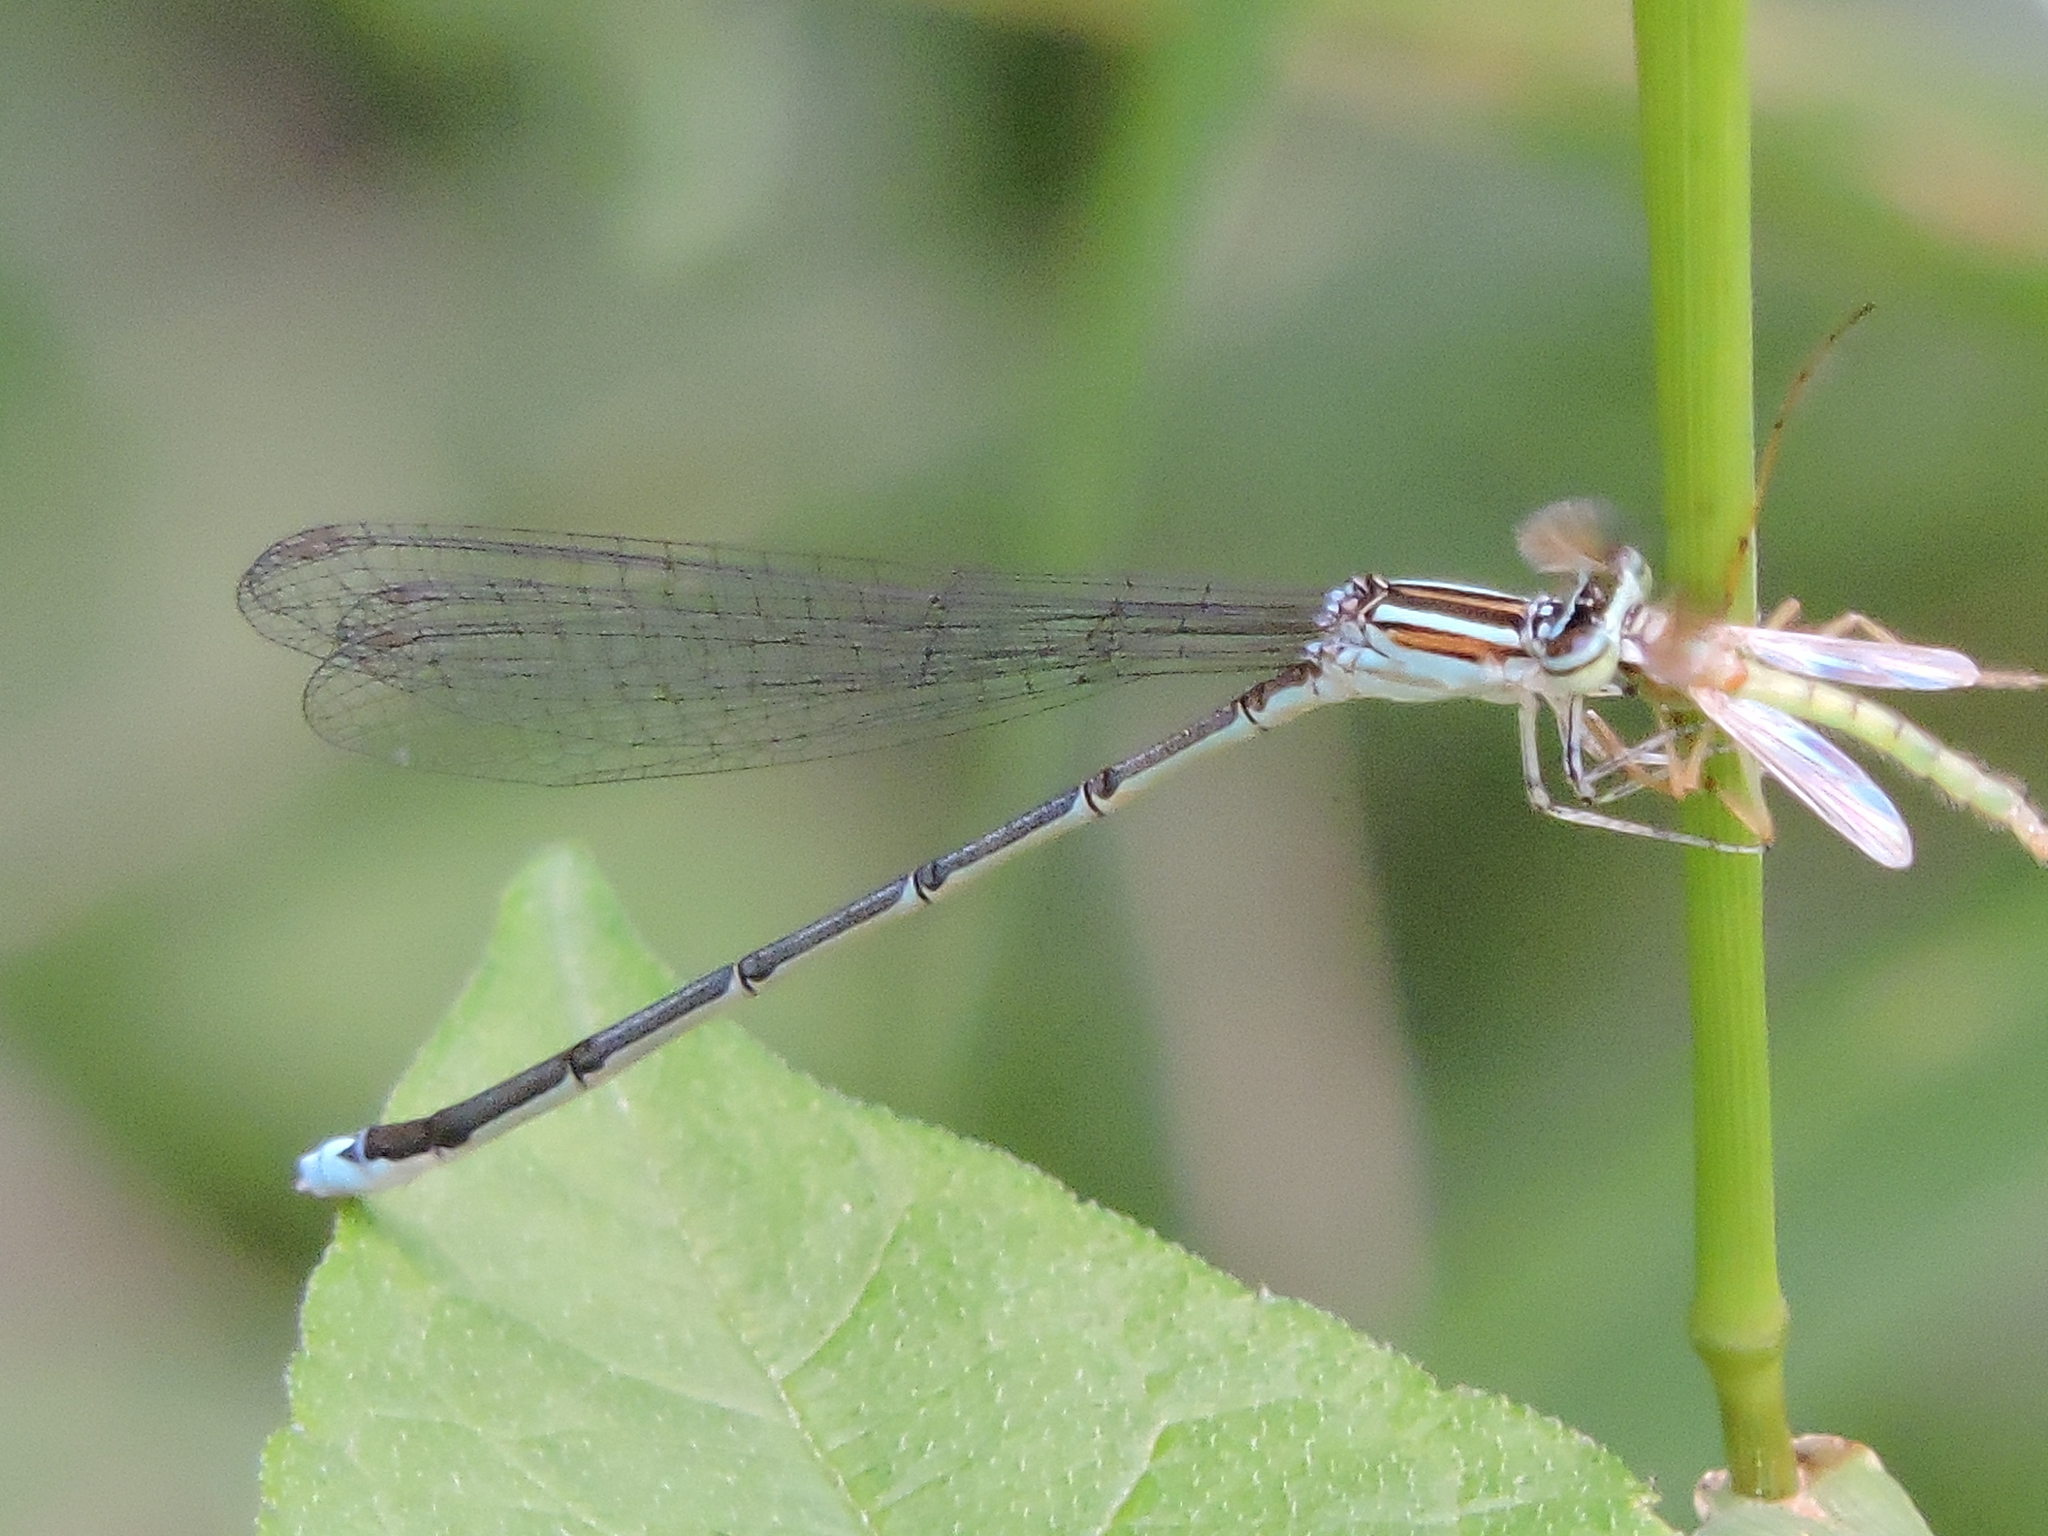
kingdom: Animalia
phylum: Arthropoda
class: Insecta
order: Odonata
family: Coenagrionidae
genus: Enallagma
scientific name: Enallagma exsulans
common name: Stream bluet
